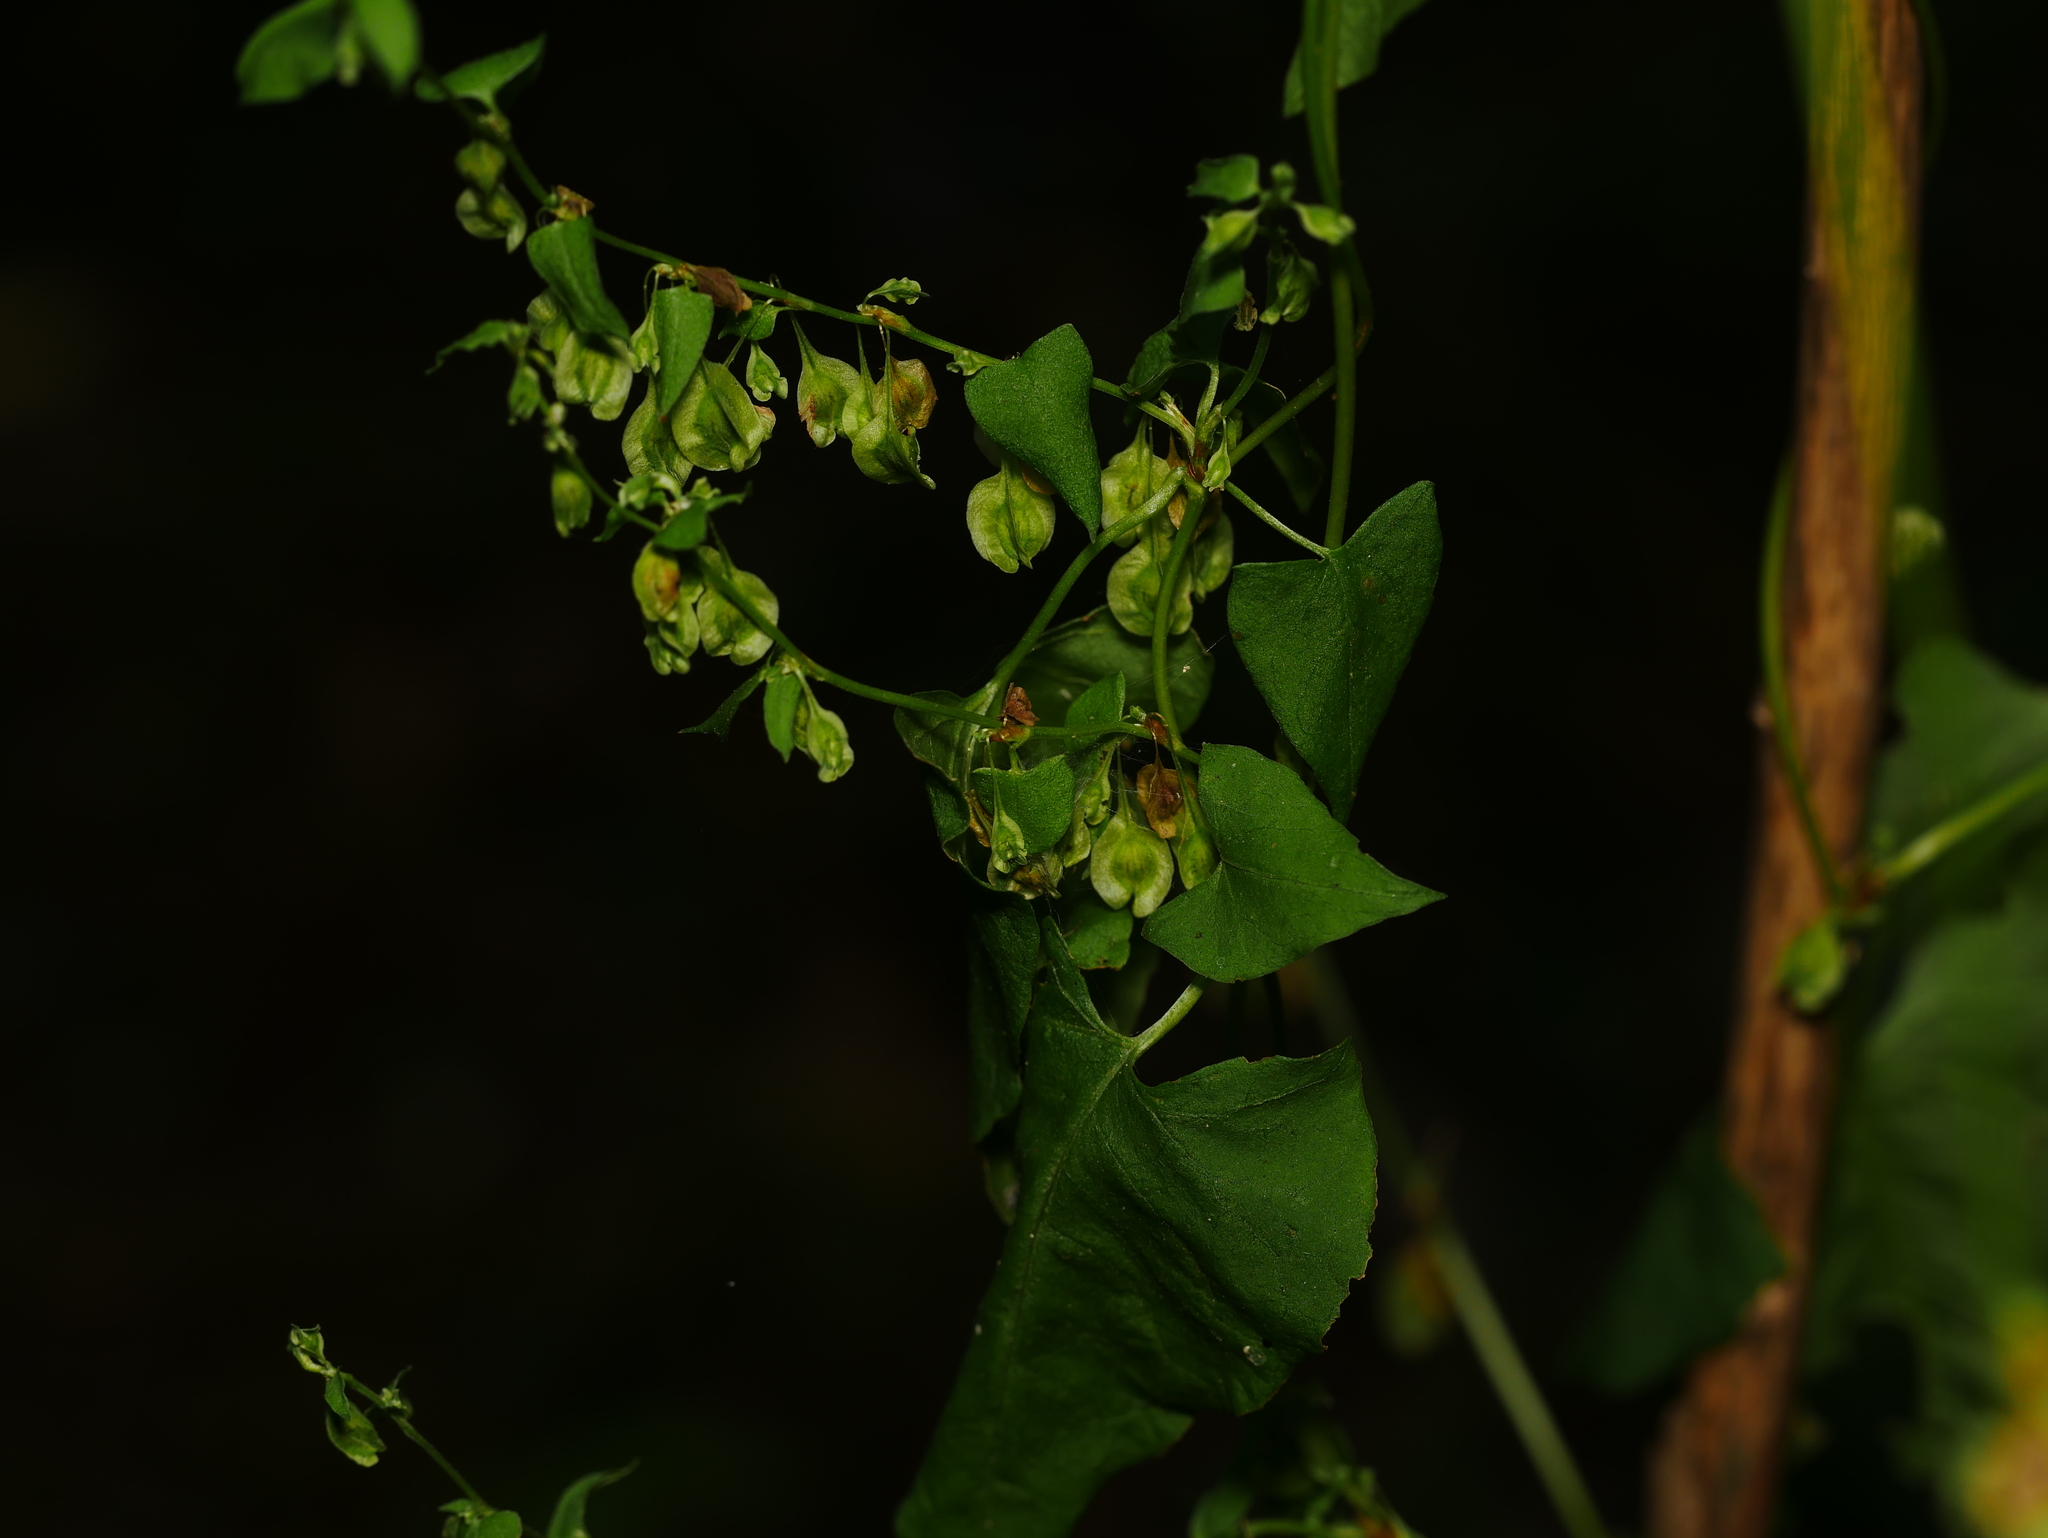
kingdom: Plantae
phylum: Tracheophyta
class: Magnoliopsida
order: Caryophyllales
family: Polygonaceae
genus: Fallopia
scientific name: Fallopia dumetorum
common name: Copse-bindweed
